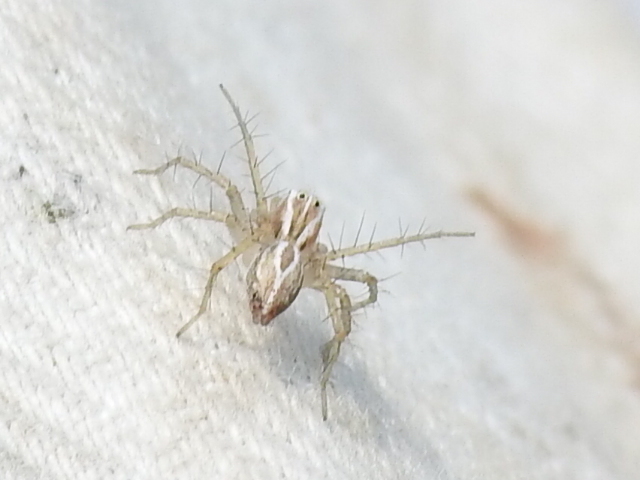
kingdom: Animalia
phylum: Arthropoda
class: Arachnida
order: Araneae
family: Oxyopidae
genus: Oxyopes
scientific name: Oxyopes salticus
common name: Lynx spiders
